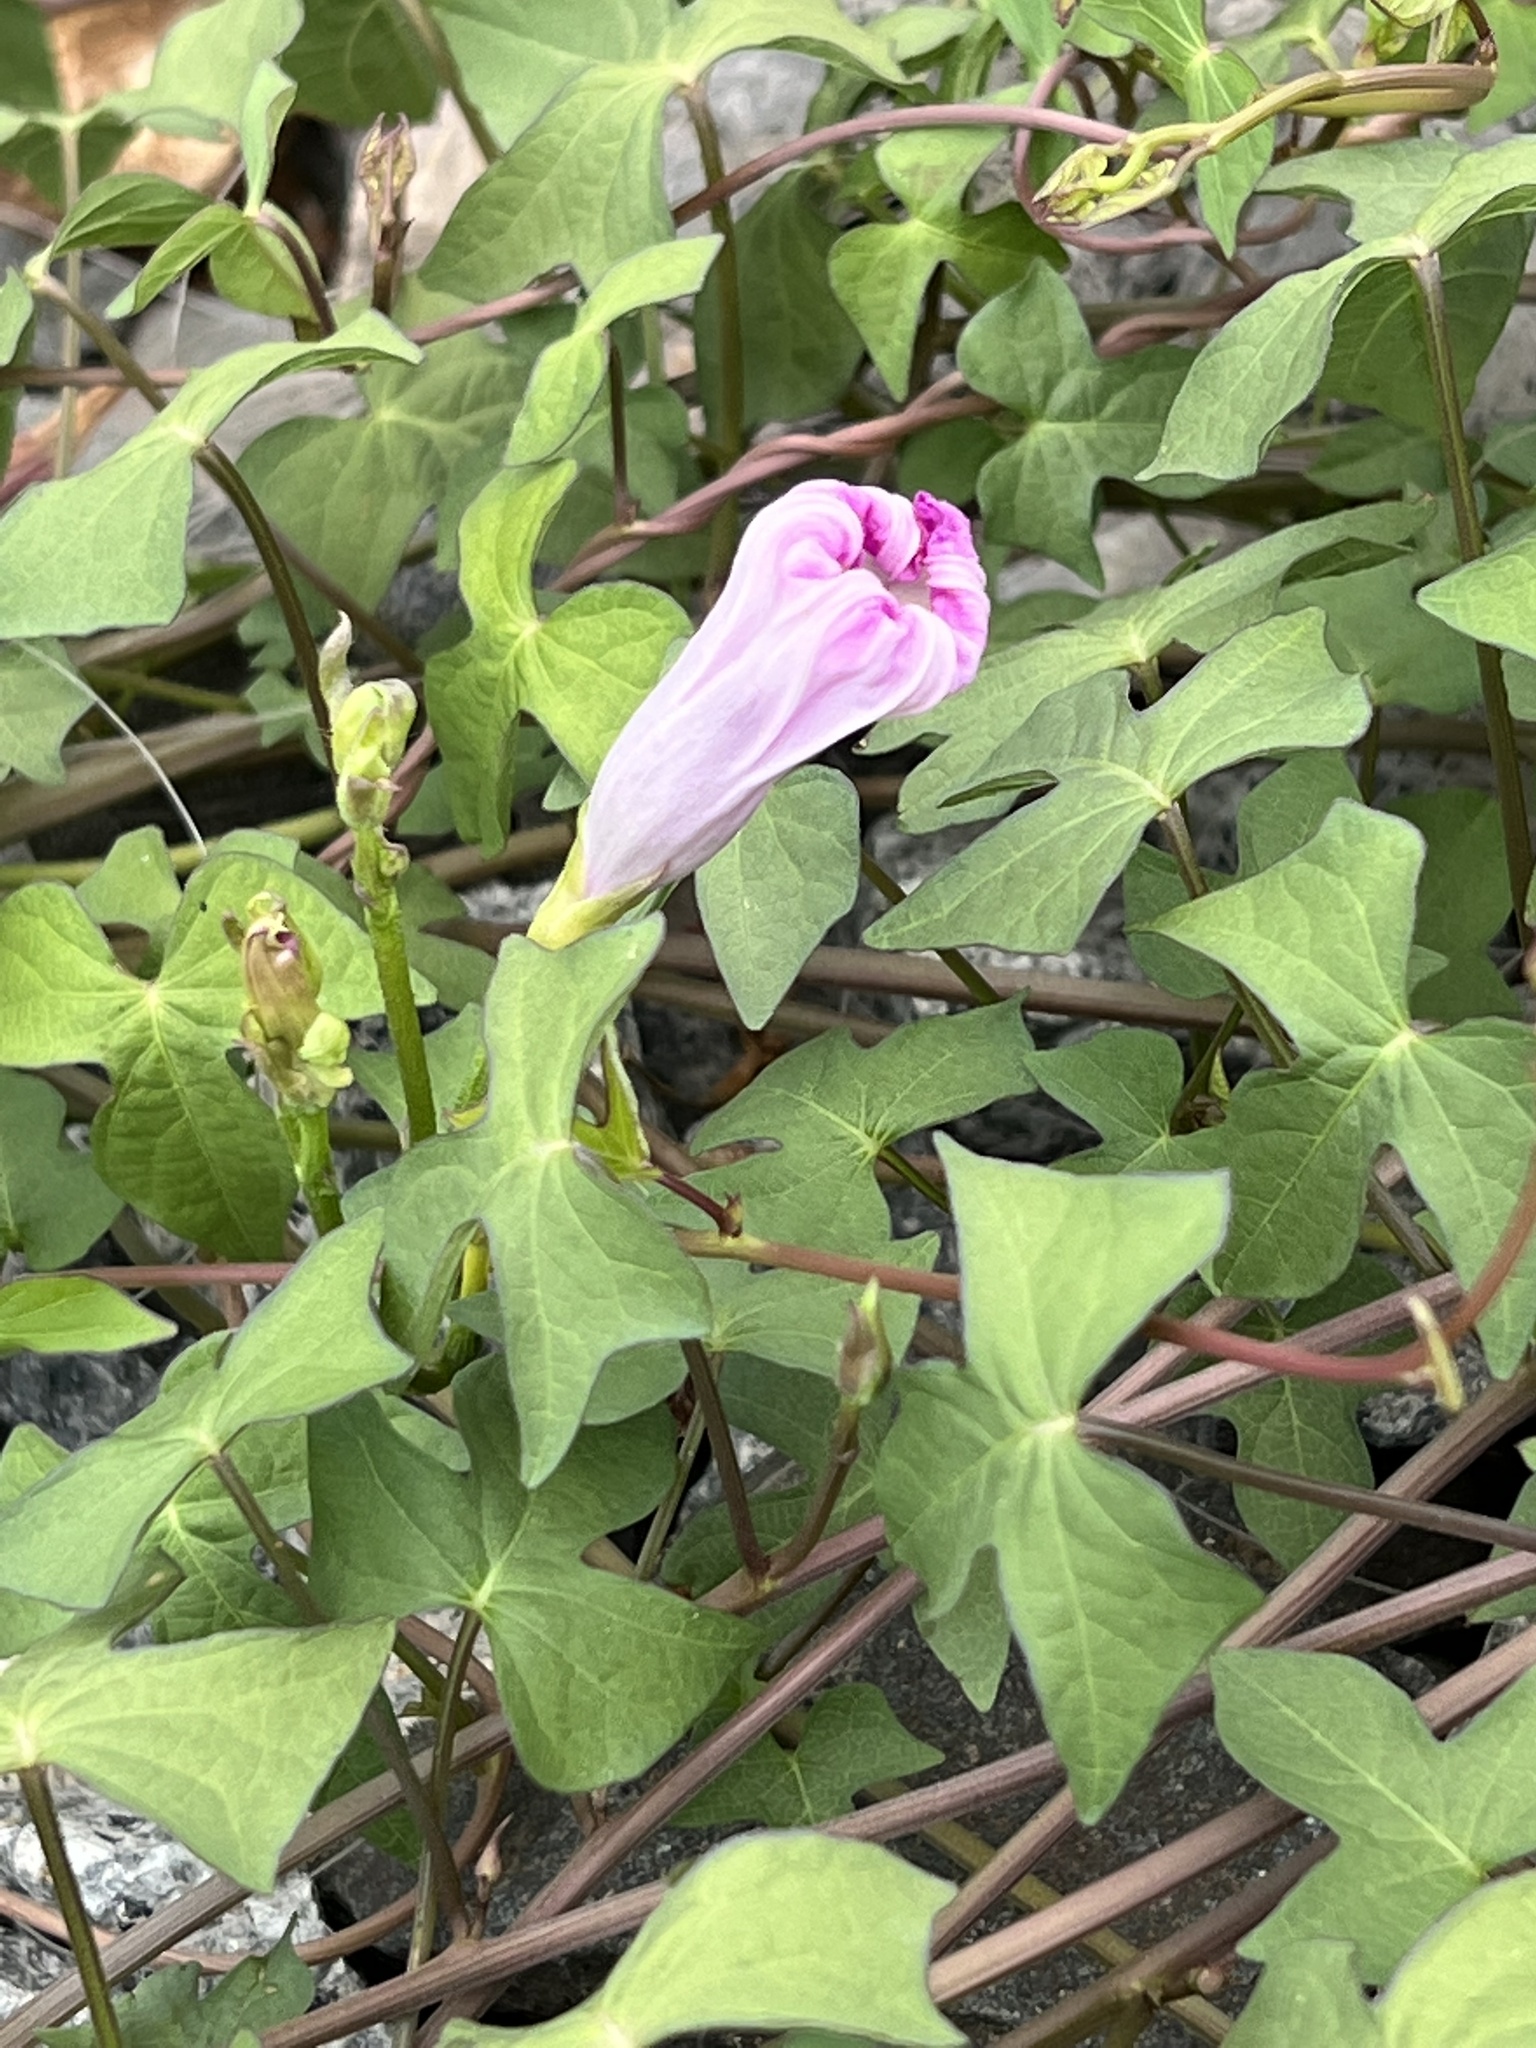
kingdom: Plantae
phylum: Tracheophyta
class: Magnoliopsida
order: Solanales
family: Convolvulaceae
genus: Ipomoea
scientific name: Ipomoea cordatotriloba
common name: Cotton morning glory
